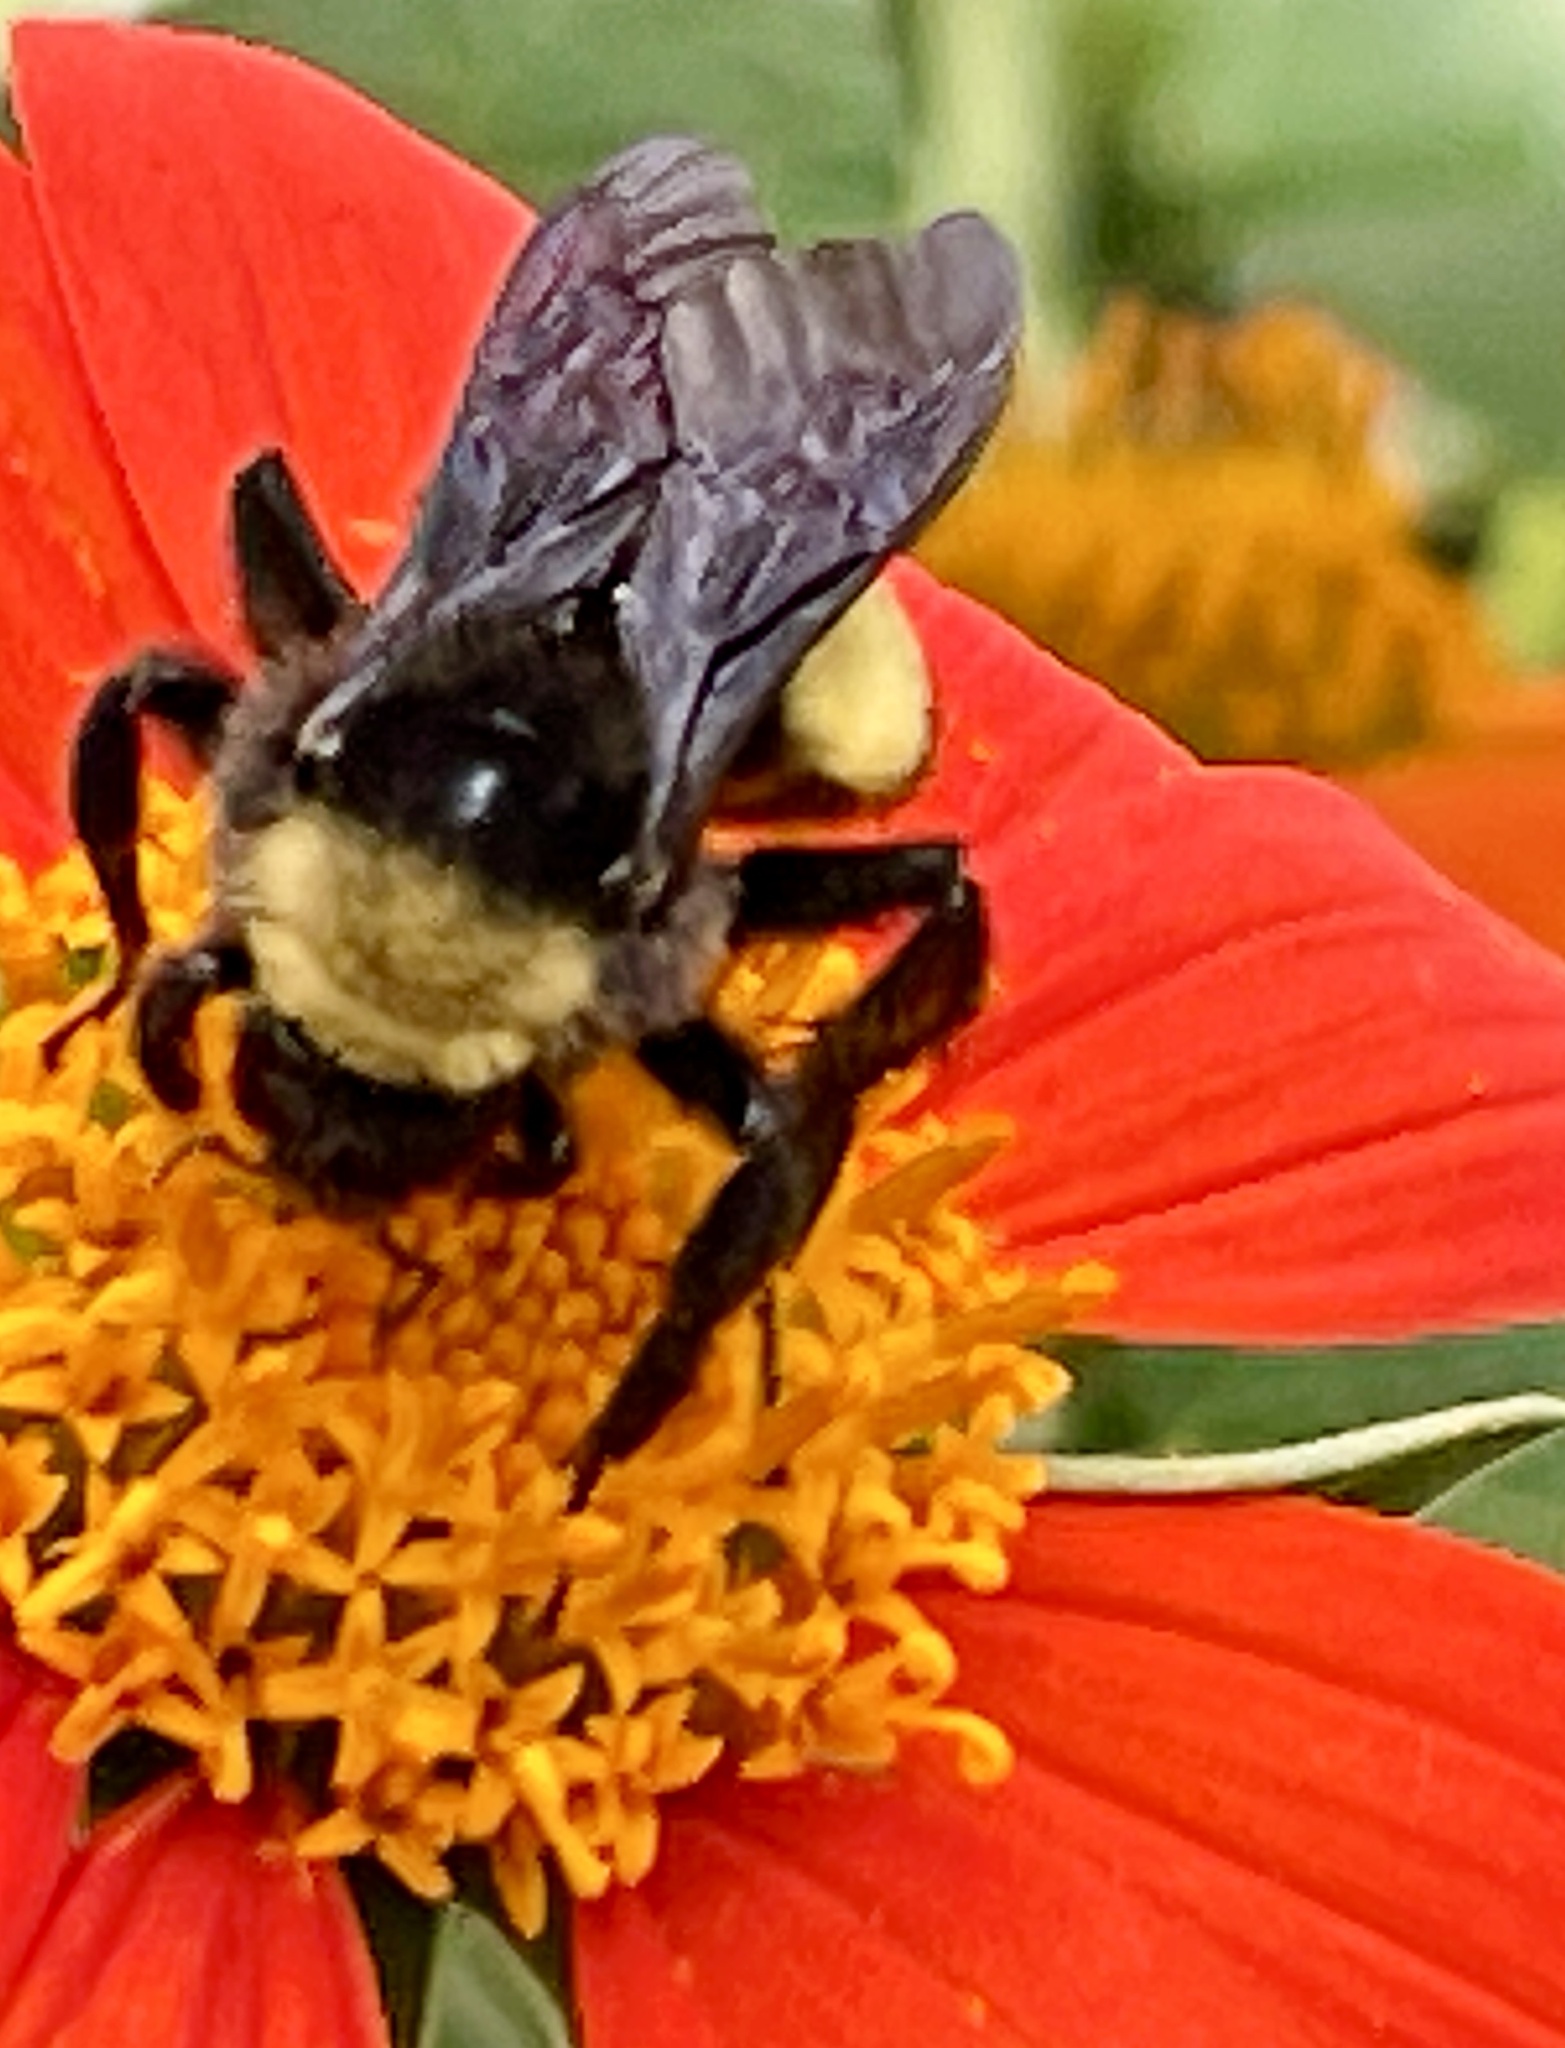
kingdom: Animalia
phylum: Arthropoda
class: Insecta
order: Hymenoptera
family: Apidae
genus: Bombus
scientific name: Bombus pensylvanicus
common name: Bumble bee
